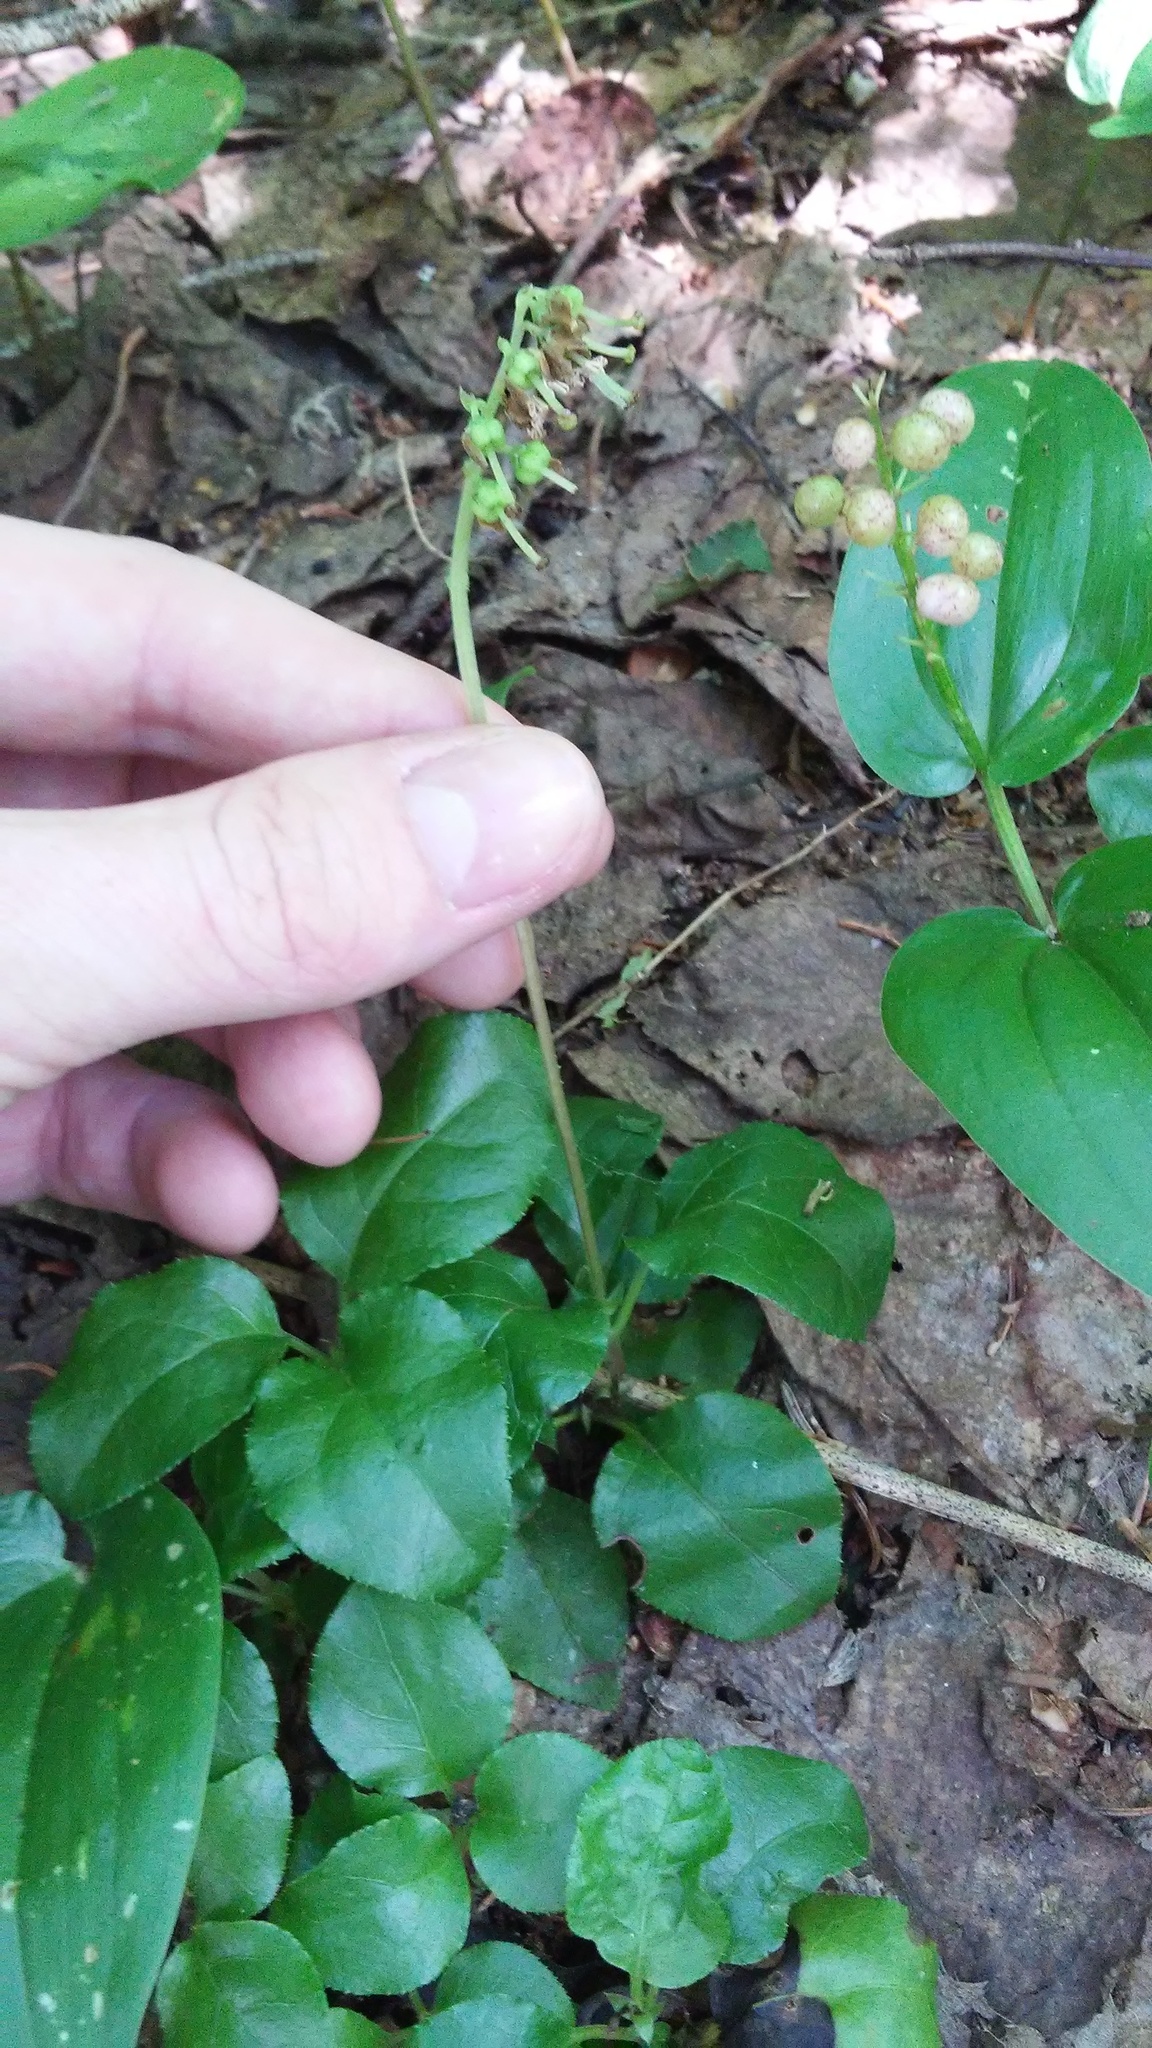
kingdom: Plantae
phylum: Tracheophyta
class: Magnoliopsida
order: Ericales
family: Ericaceae
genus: Orthilia
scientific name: Orthilia secunda
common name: One-sided orthilia
